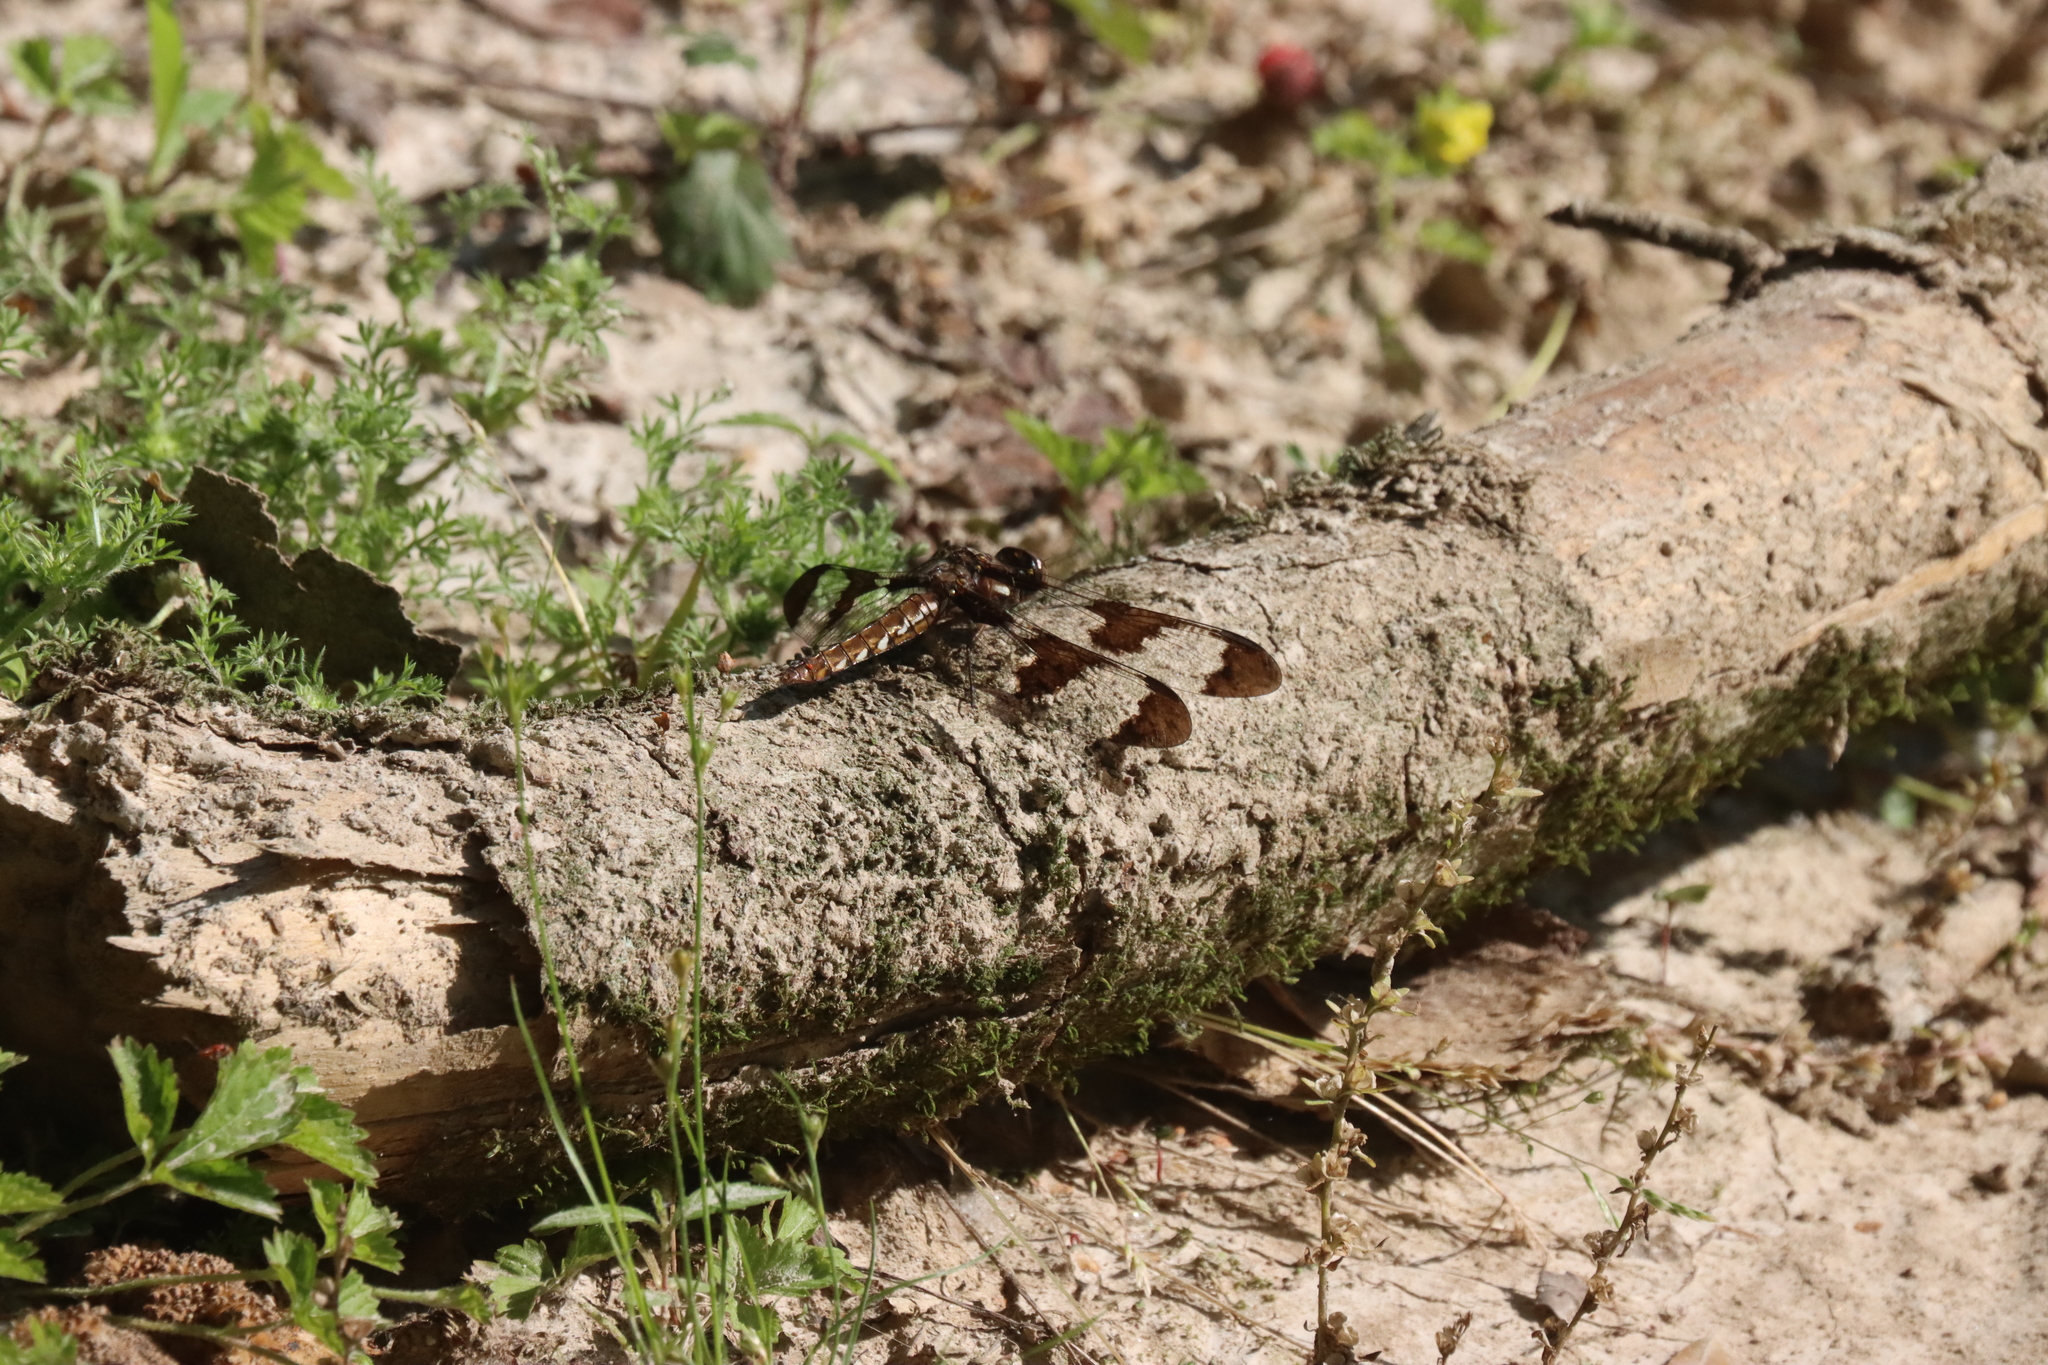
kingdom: Animalia
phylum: Arthropoda
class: Insecta
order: Odonata
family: Libellulidae
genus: Plathemis
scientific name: Plathemis lydia
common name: Common whitetail
